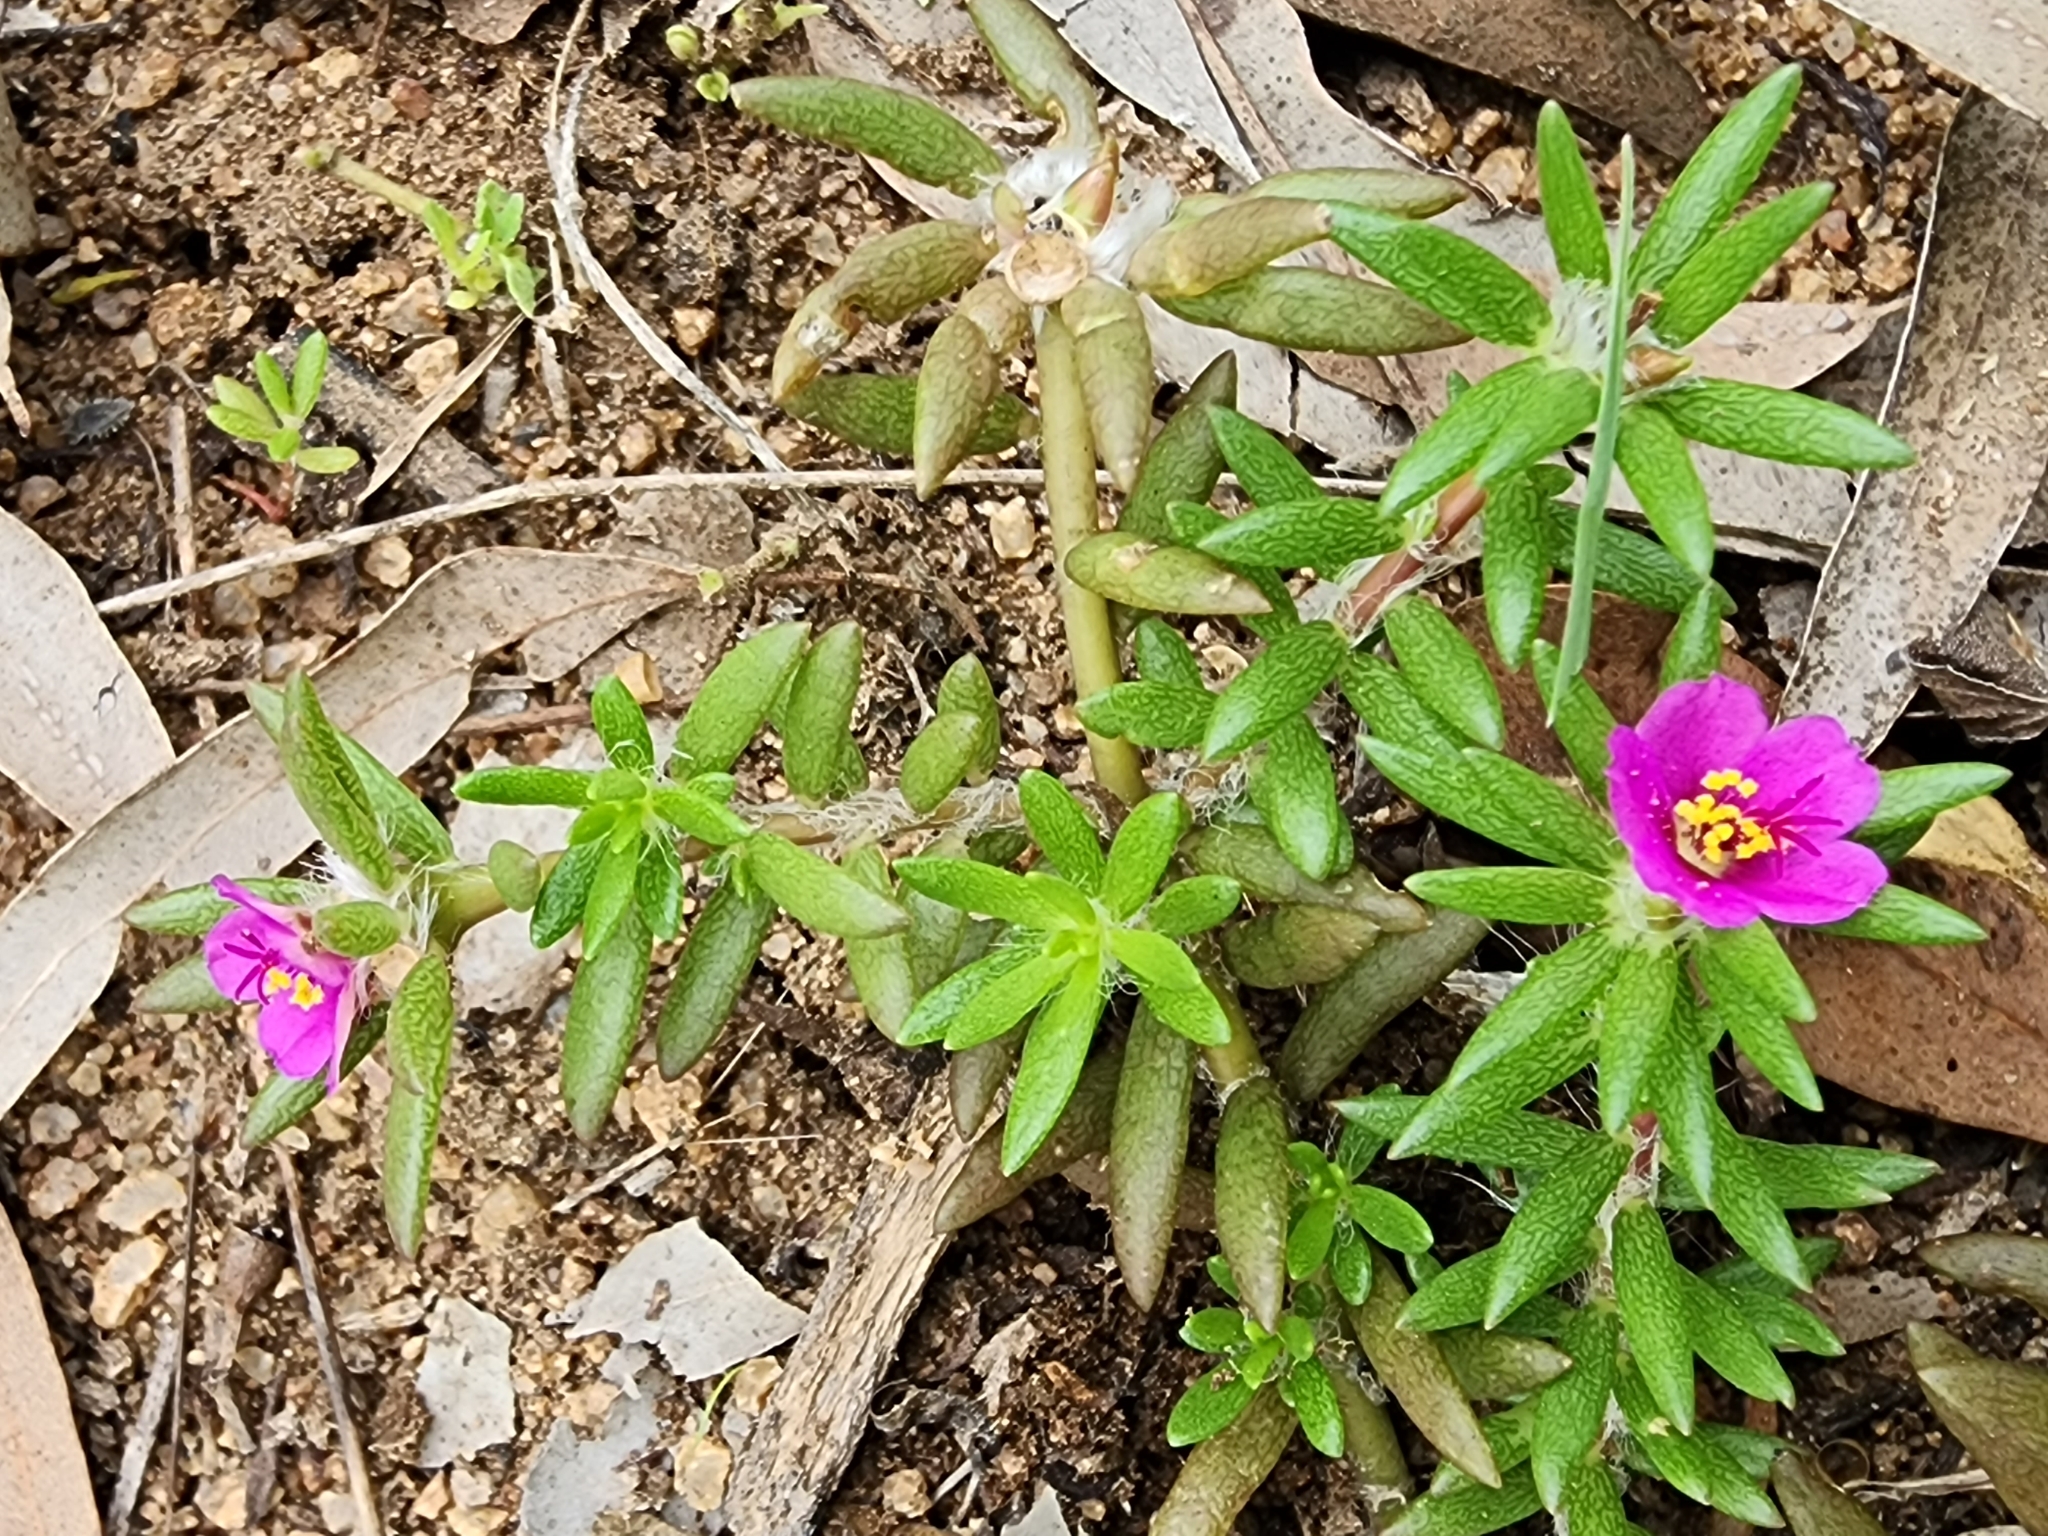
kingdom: Plantae
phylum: Tracheophyta
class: Magnoliopsida
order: Caryophyllales
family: Portulacaceae
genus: Portulaca
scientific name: Portulaca pilosa
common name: Kiss me quick
